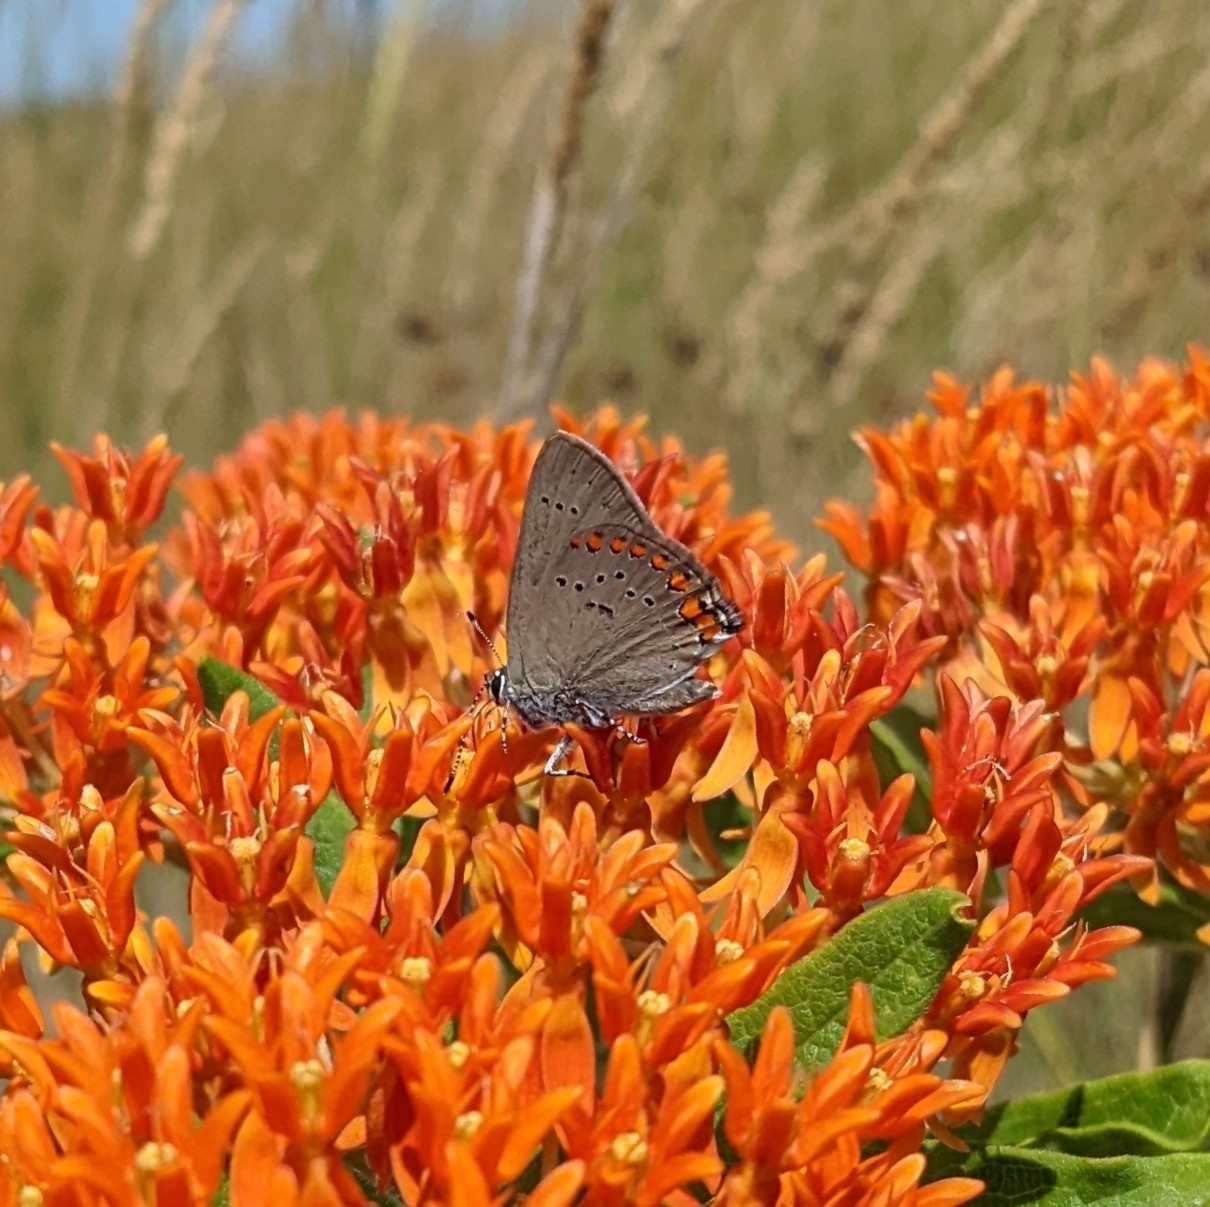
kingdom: Animalia
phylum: Arthropoda
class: Insecta
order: Lepidoptera
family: Lycaenidae
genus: Harkenclenus
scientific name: Harkenclenus titus
